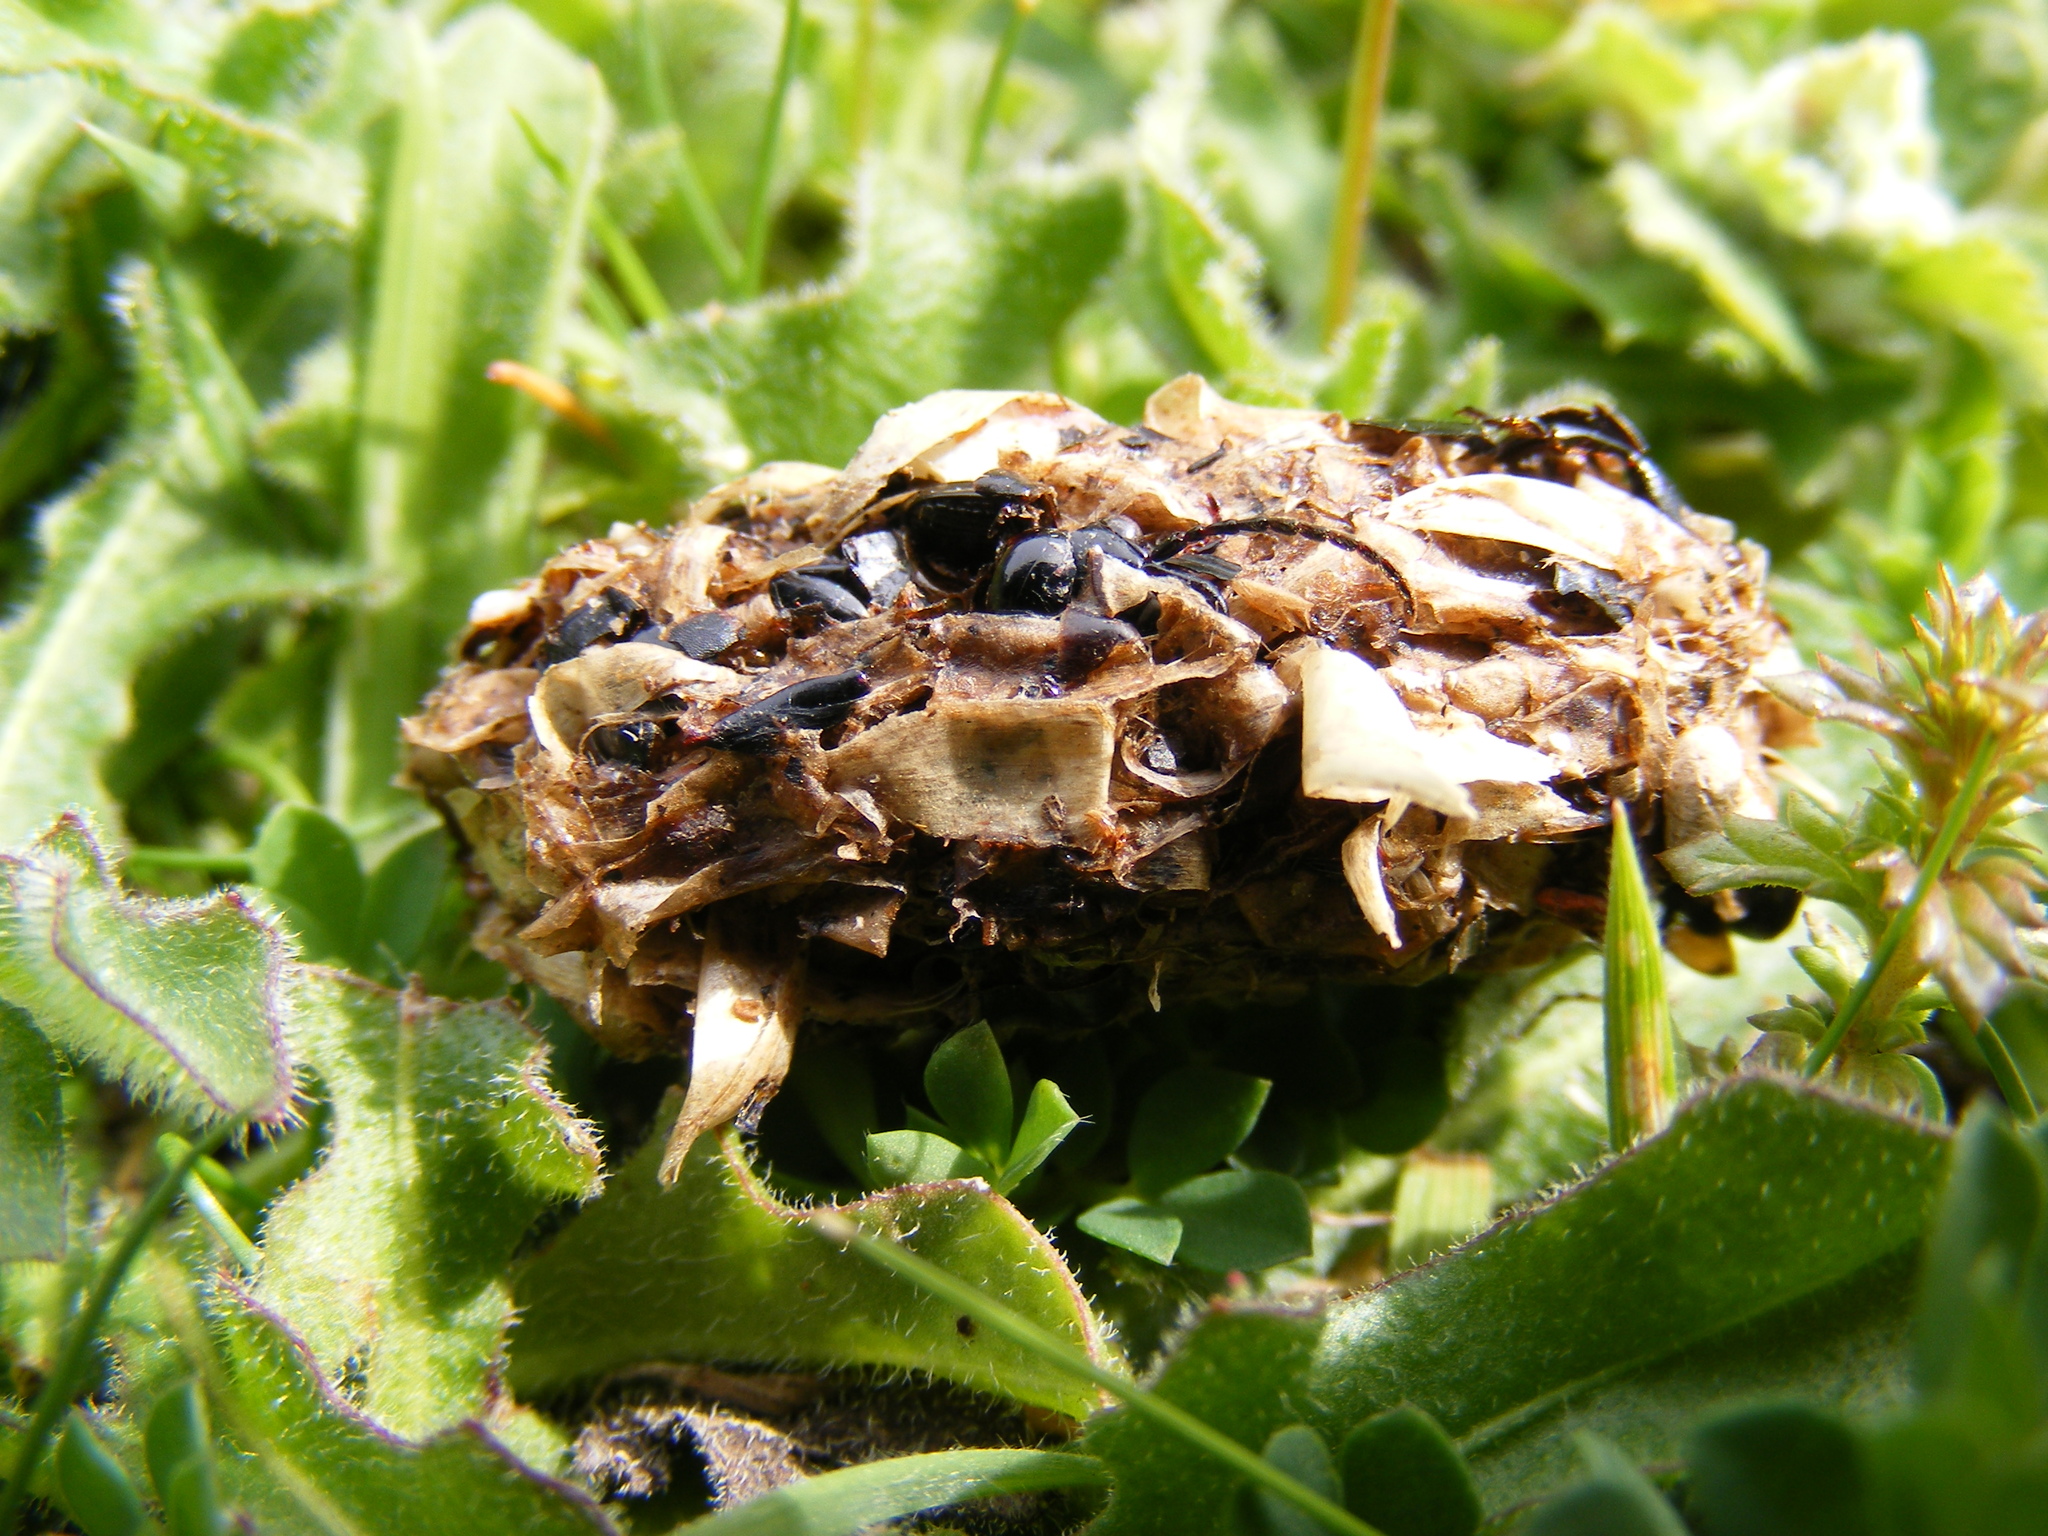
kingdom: Animalia
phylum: Chordata
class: Mammalia
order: Erinaceomorpha
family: Erinaceidae
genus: Erinaceus
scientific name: Erinaceus europaeus
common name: West european hedgehog
